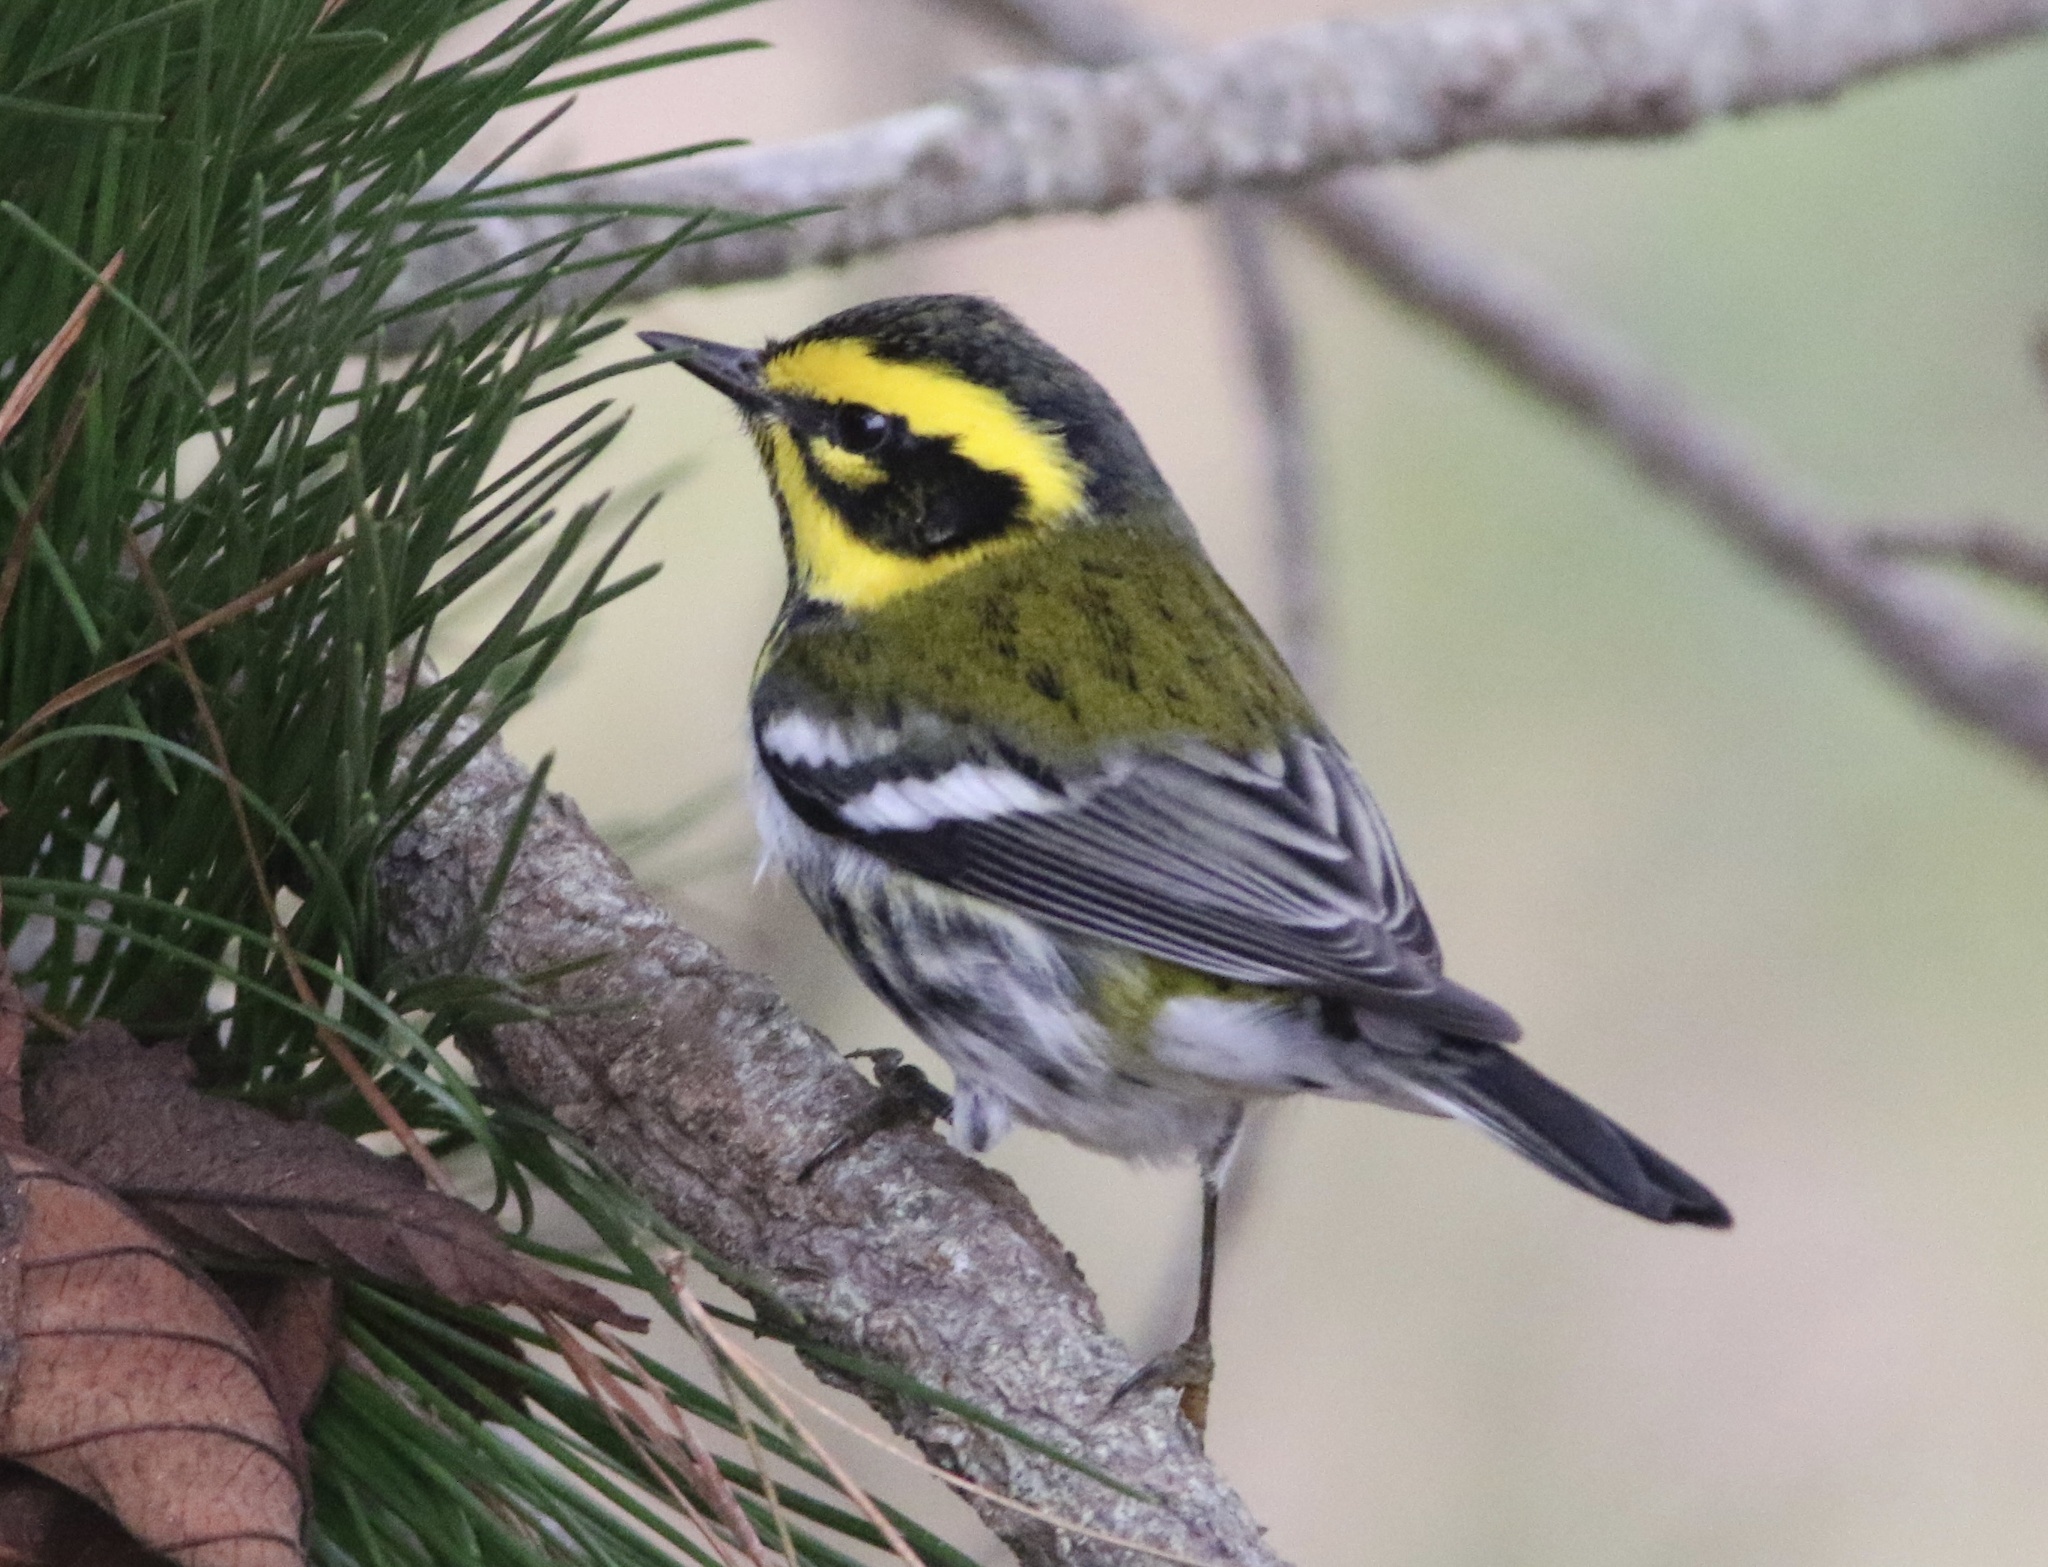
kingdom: Animalia
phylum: Chordata
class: Aves
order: Passeriformes
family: Parulidae
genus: Setophaga
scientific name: Setophaga townsendi
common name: Townsend's warbler
